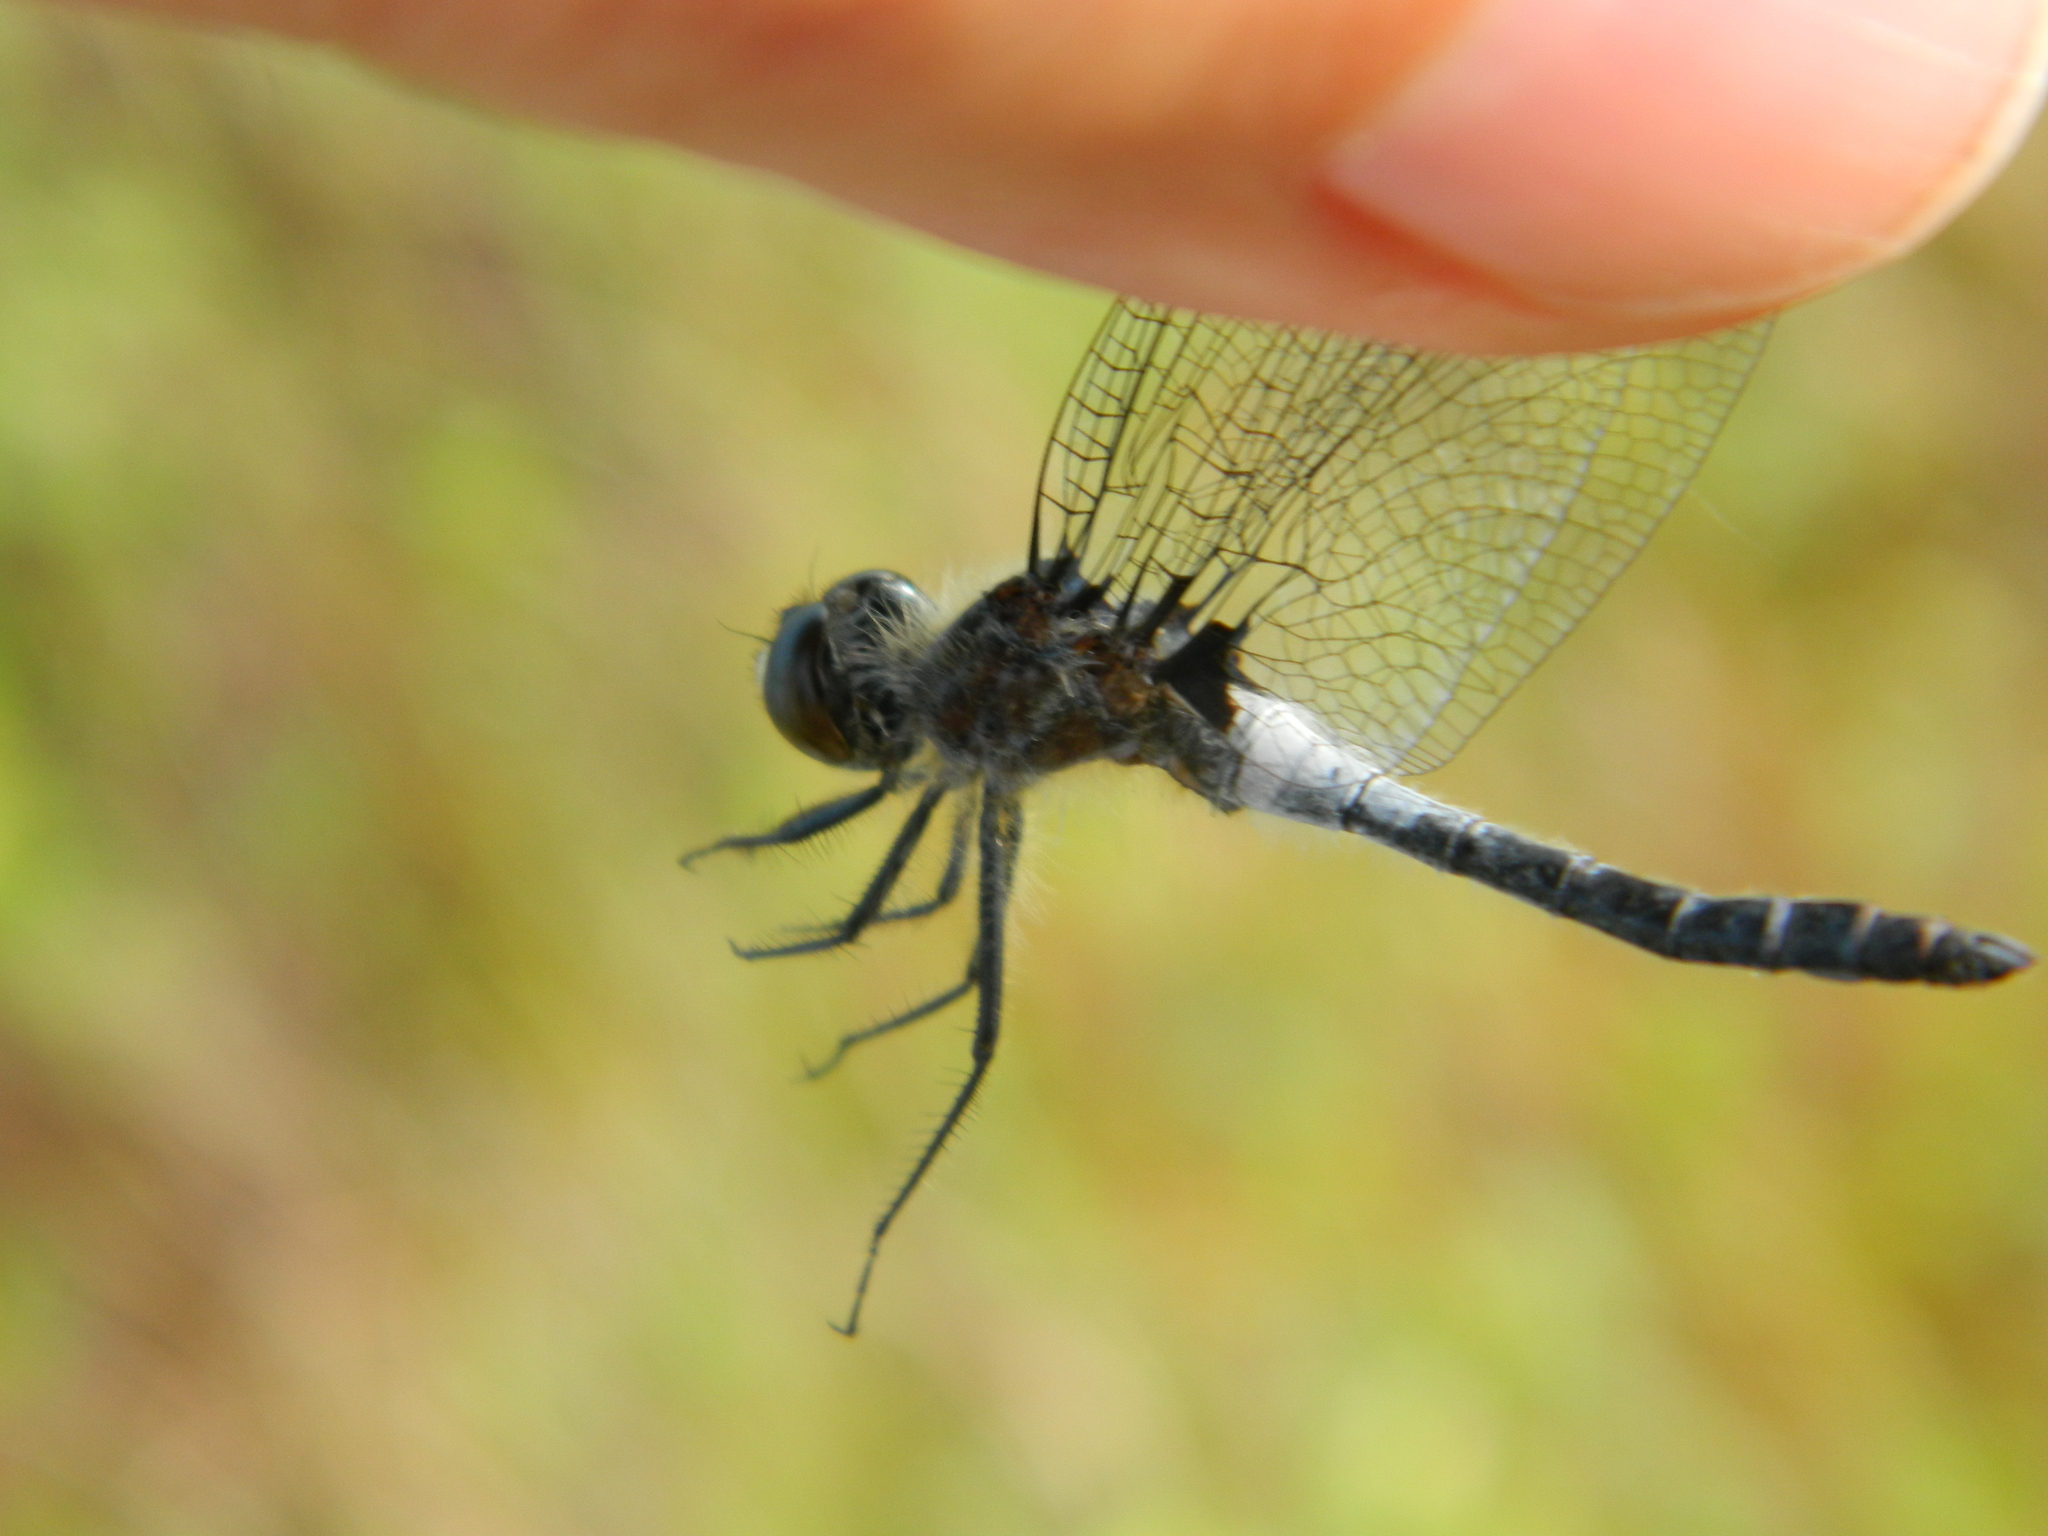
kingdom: Animalia
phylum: Arthropoda
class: Insecta
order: Odonata
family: Libellulidae
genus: Leucorrhinia
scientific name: Leucorrhinia frigida
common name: Frosted whiteface
